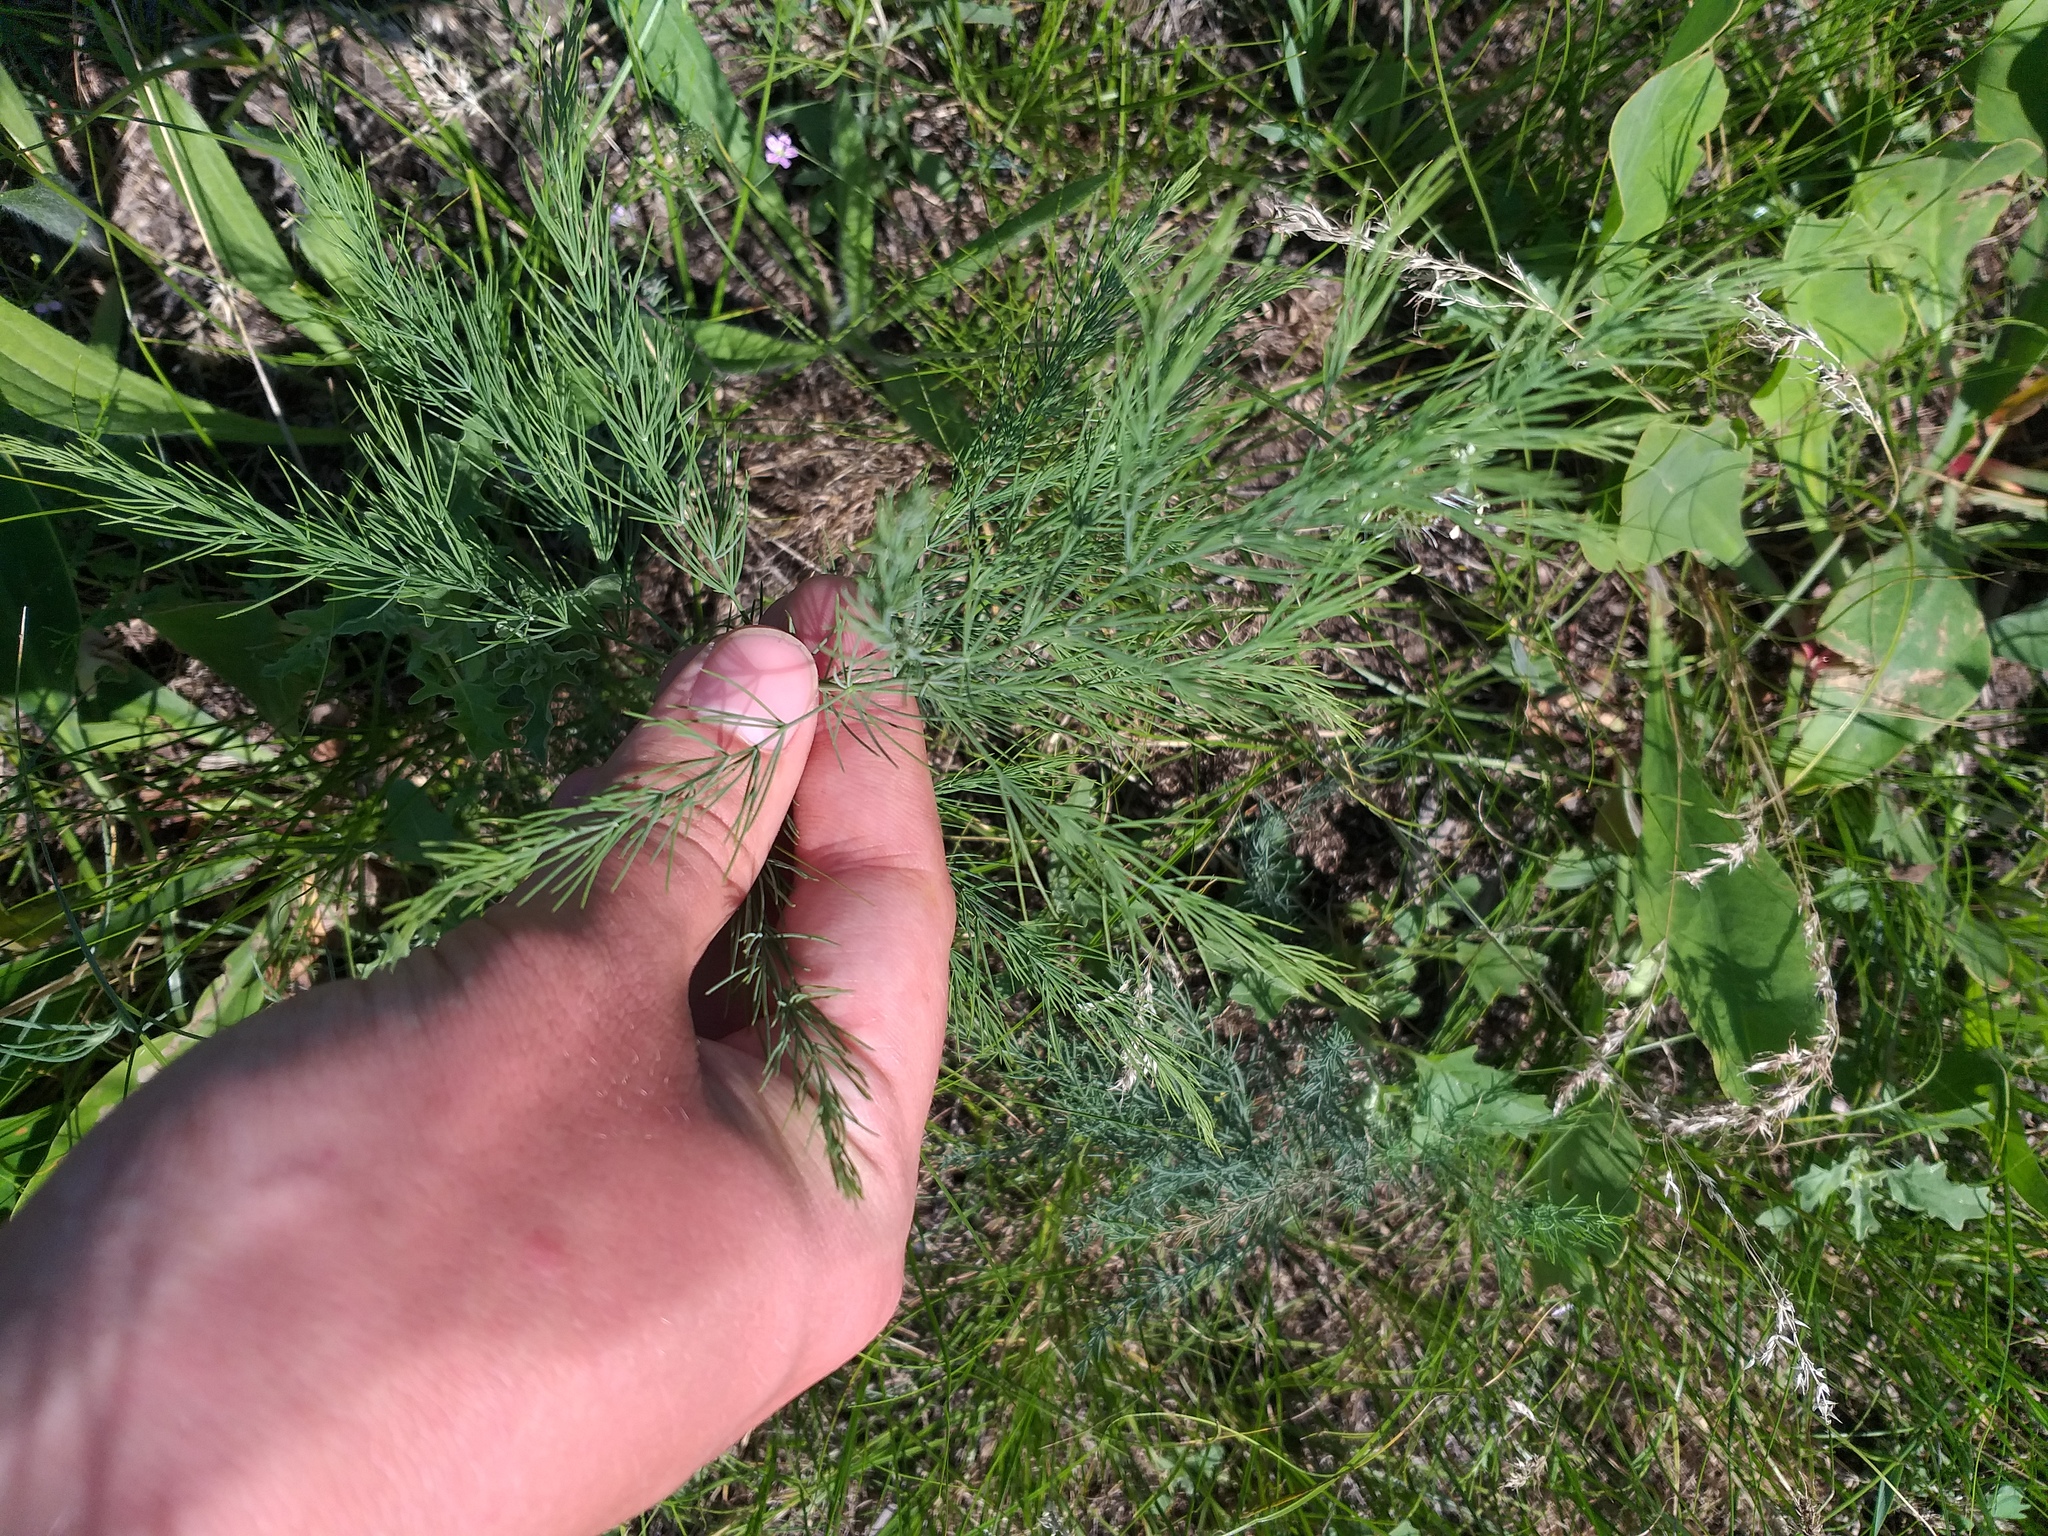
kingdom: Plantae
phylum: Tracheophyta
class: Liliopsida
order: Asparagales
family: Asparagaceae
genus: Asparagus
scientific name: Asparagus officinalis
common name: Garden asparagus
